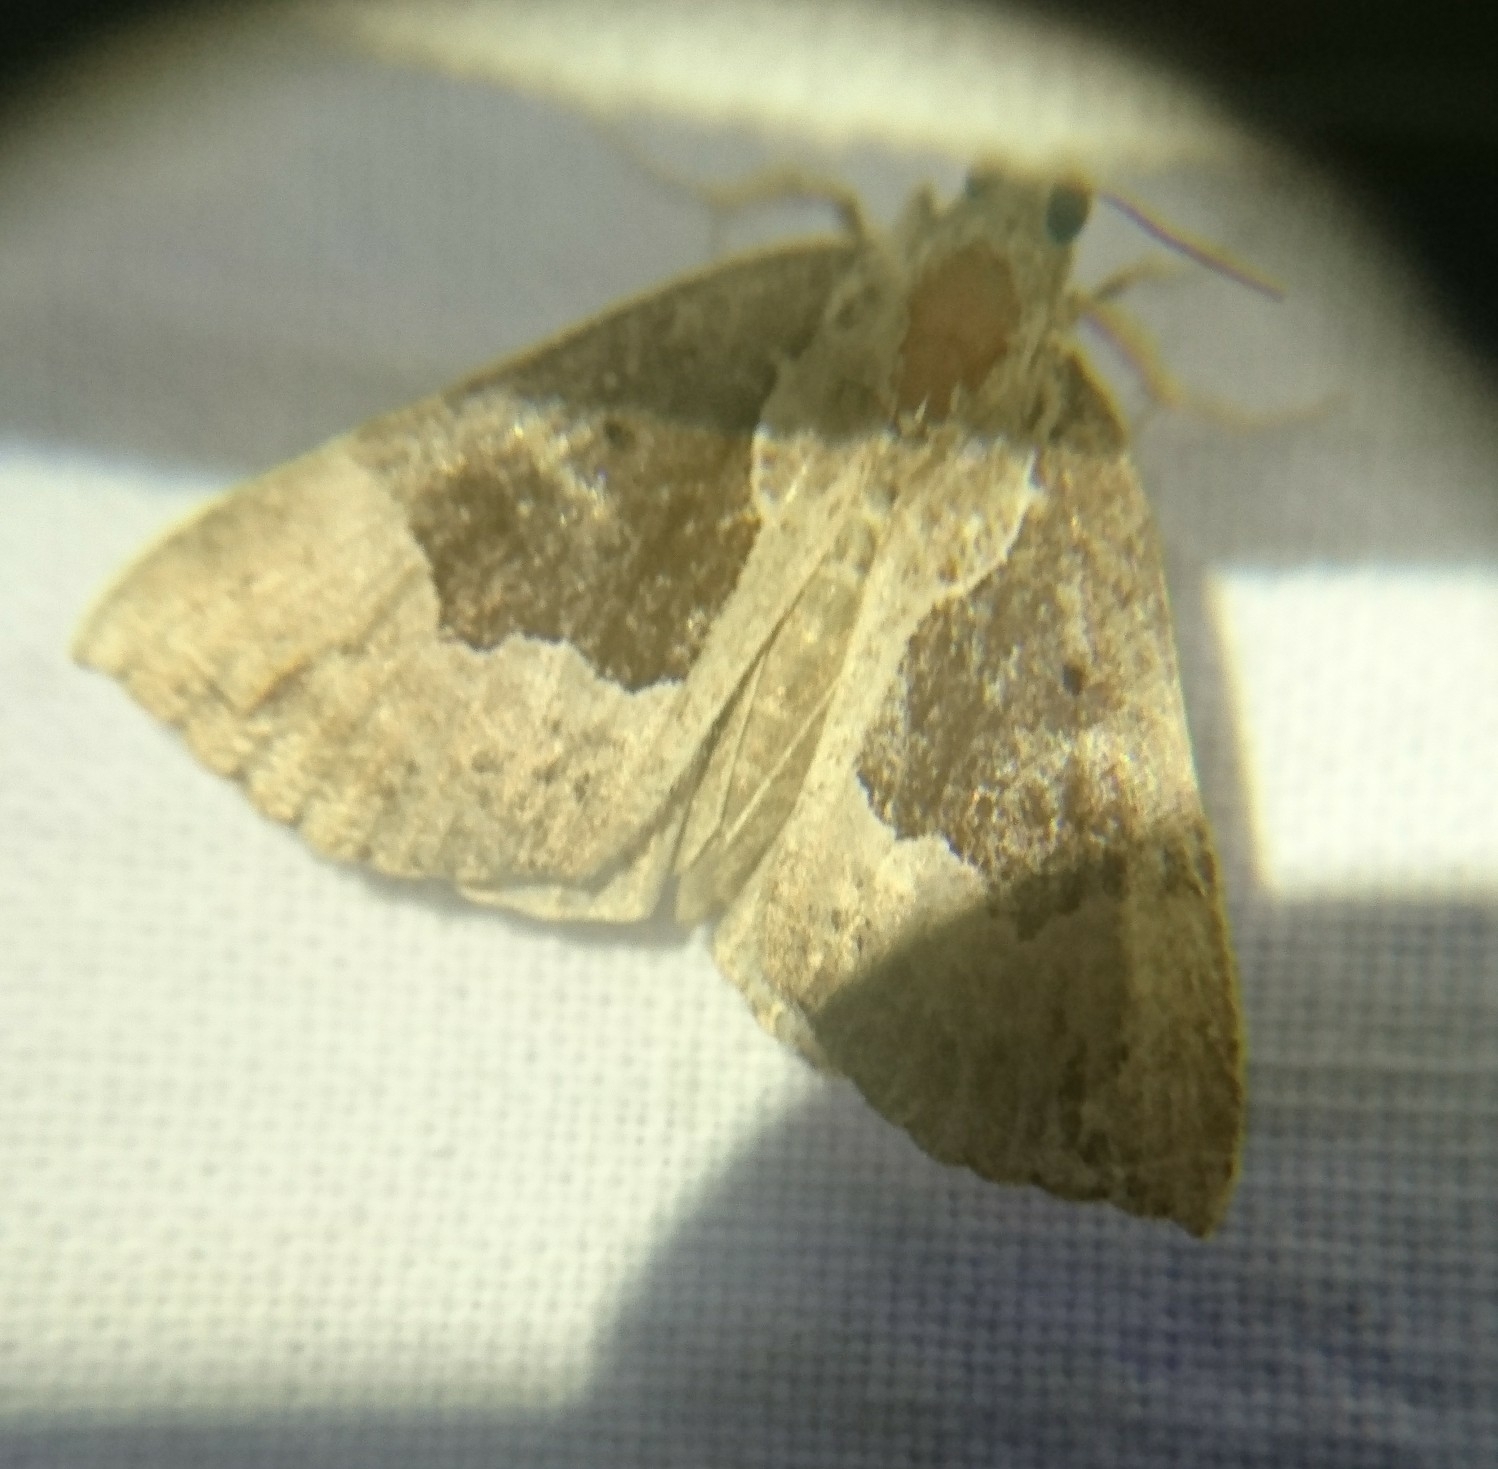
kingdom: Animalia
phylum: Arthropoda
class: Insecta
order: Lepidoptera
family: Erebidae
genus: Hypena
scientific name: Hypena bijugalis
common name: Dimorphic bomolocha moth
